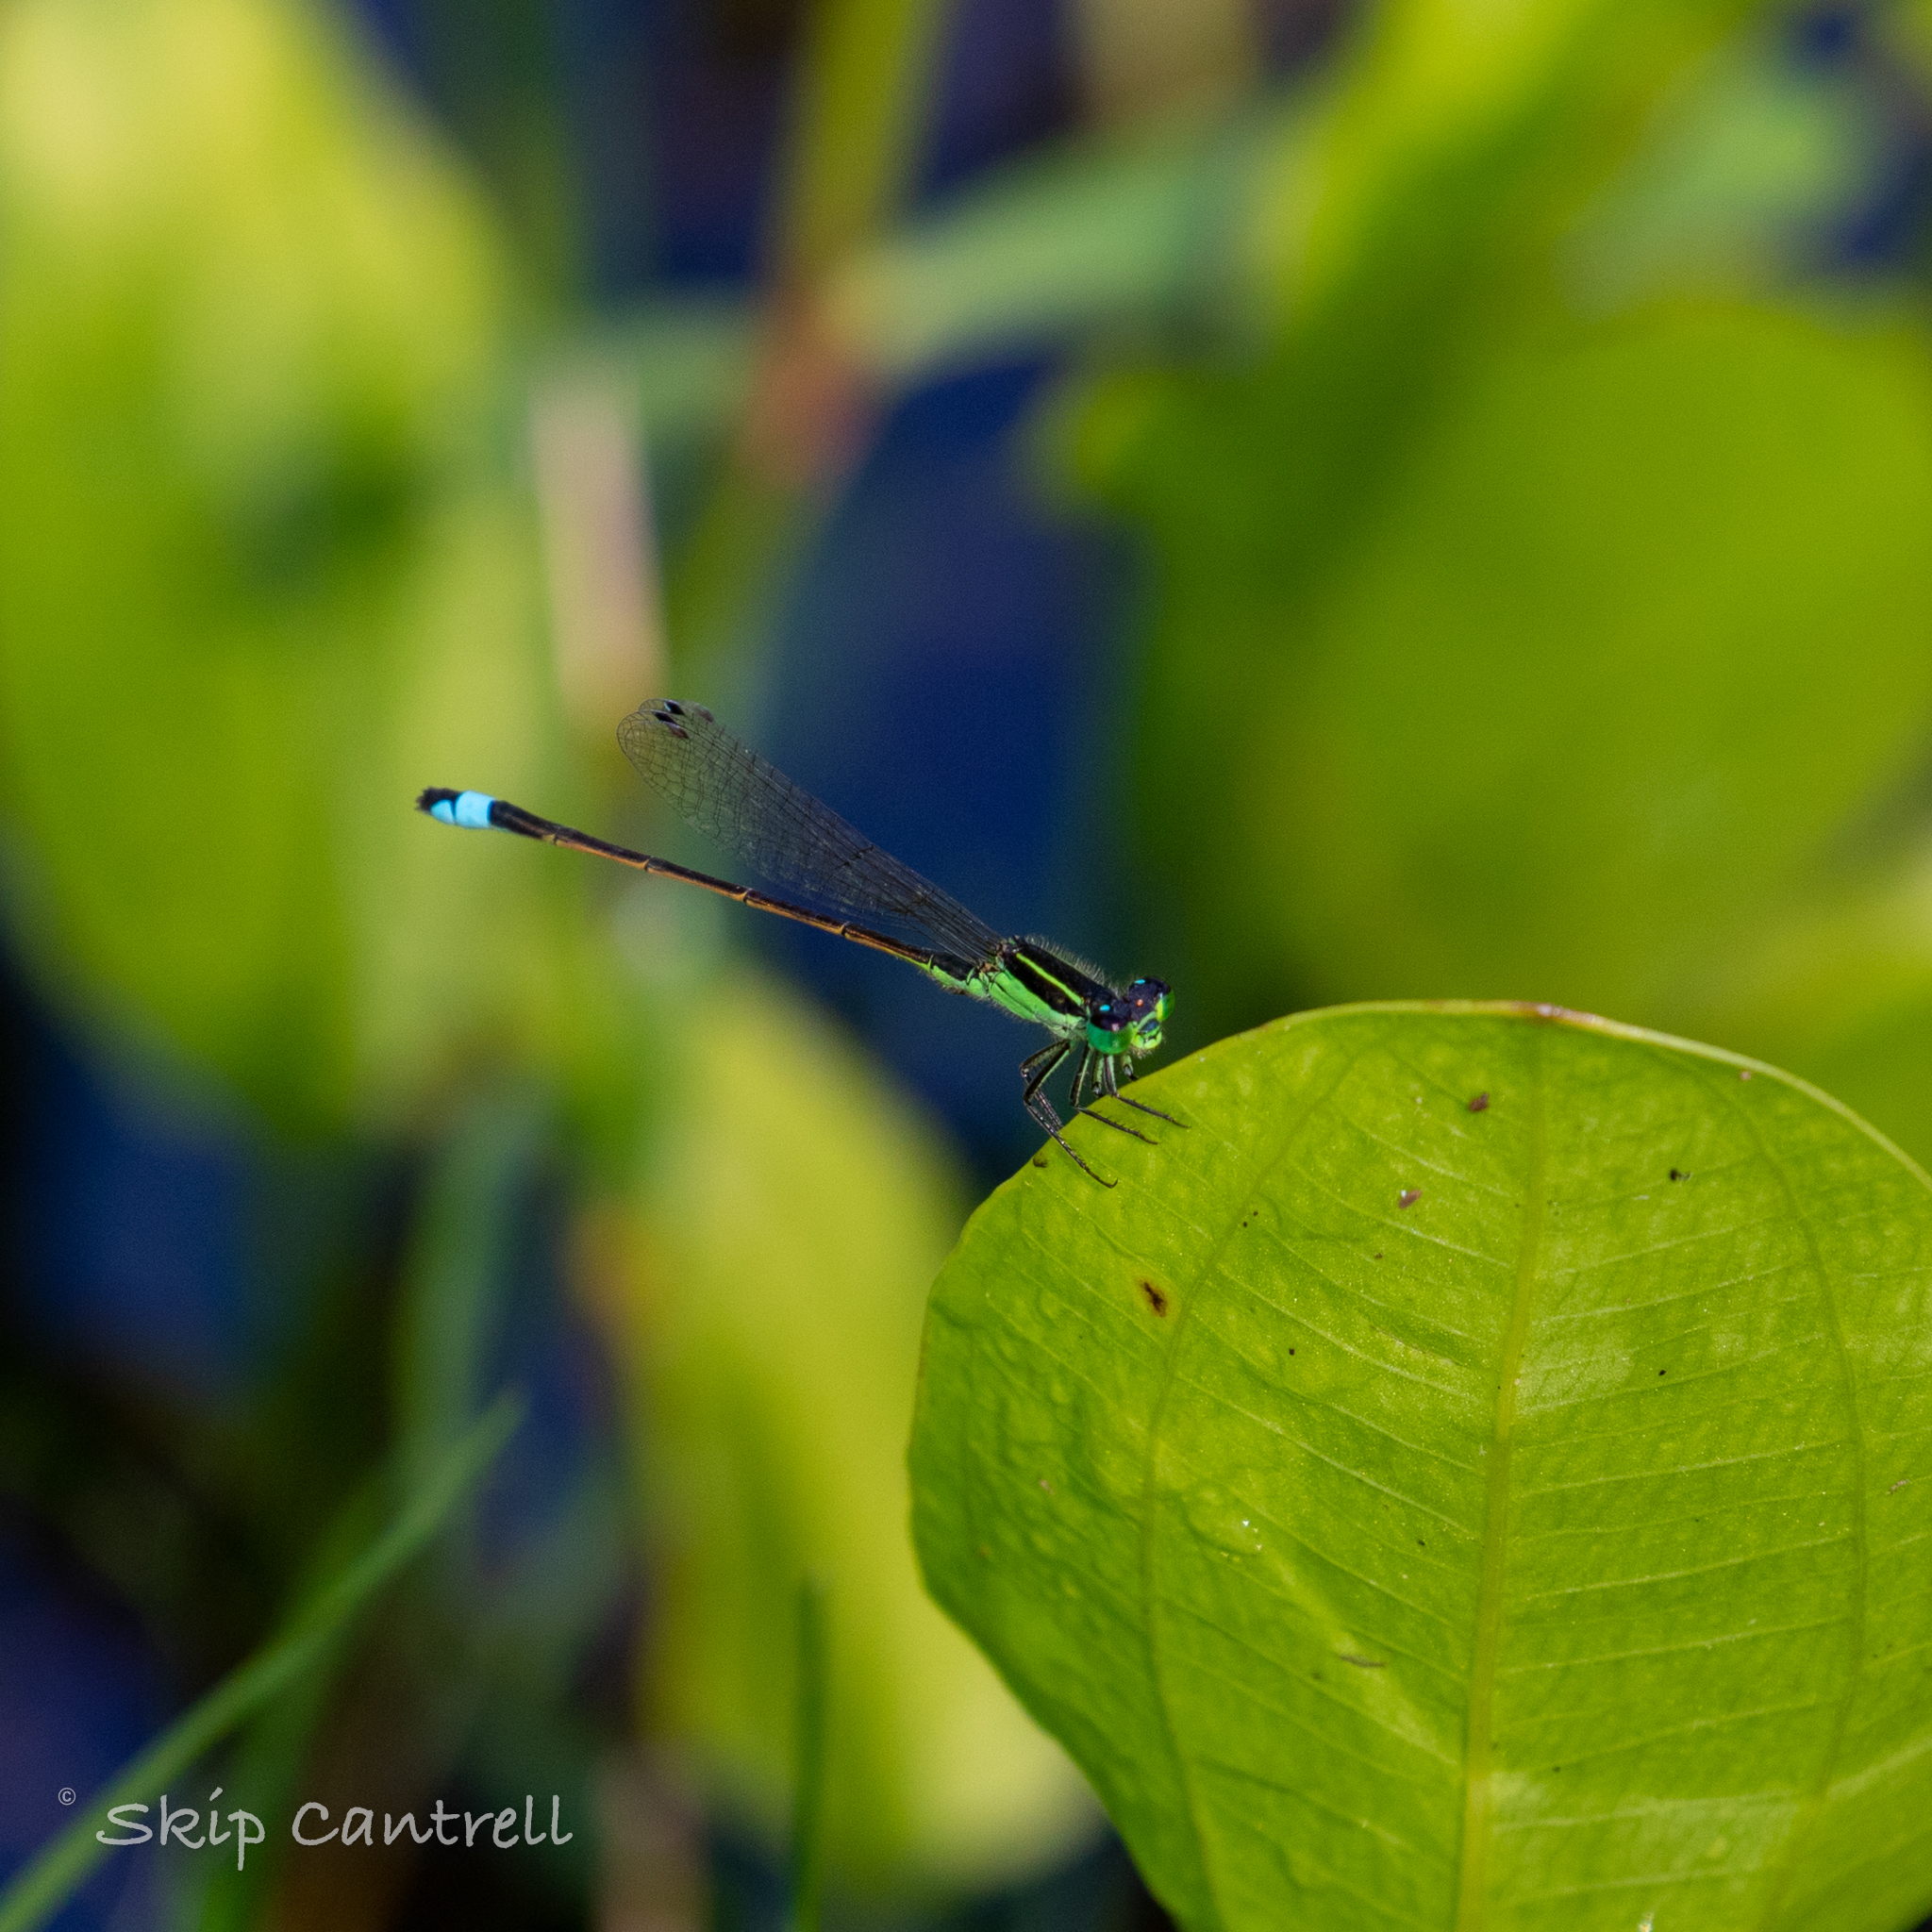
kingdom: Animalia
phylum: Arthropoda
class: Insecta
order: Odonata
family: Coenagrionidae
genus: Ischnura
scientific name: Ischnura ramburii
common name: Rambur's forktail
